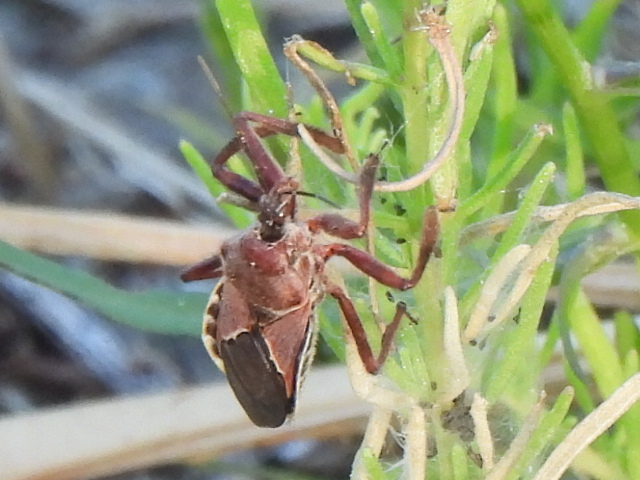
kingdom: Animalia
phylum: Arthropoda
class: Insecta
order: Hemiptera
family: Reduviidae
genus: Apiomerus
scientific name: Apiomerus spissipes
